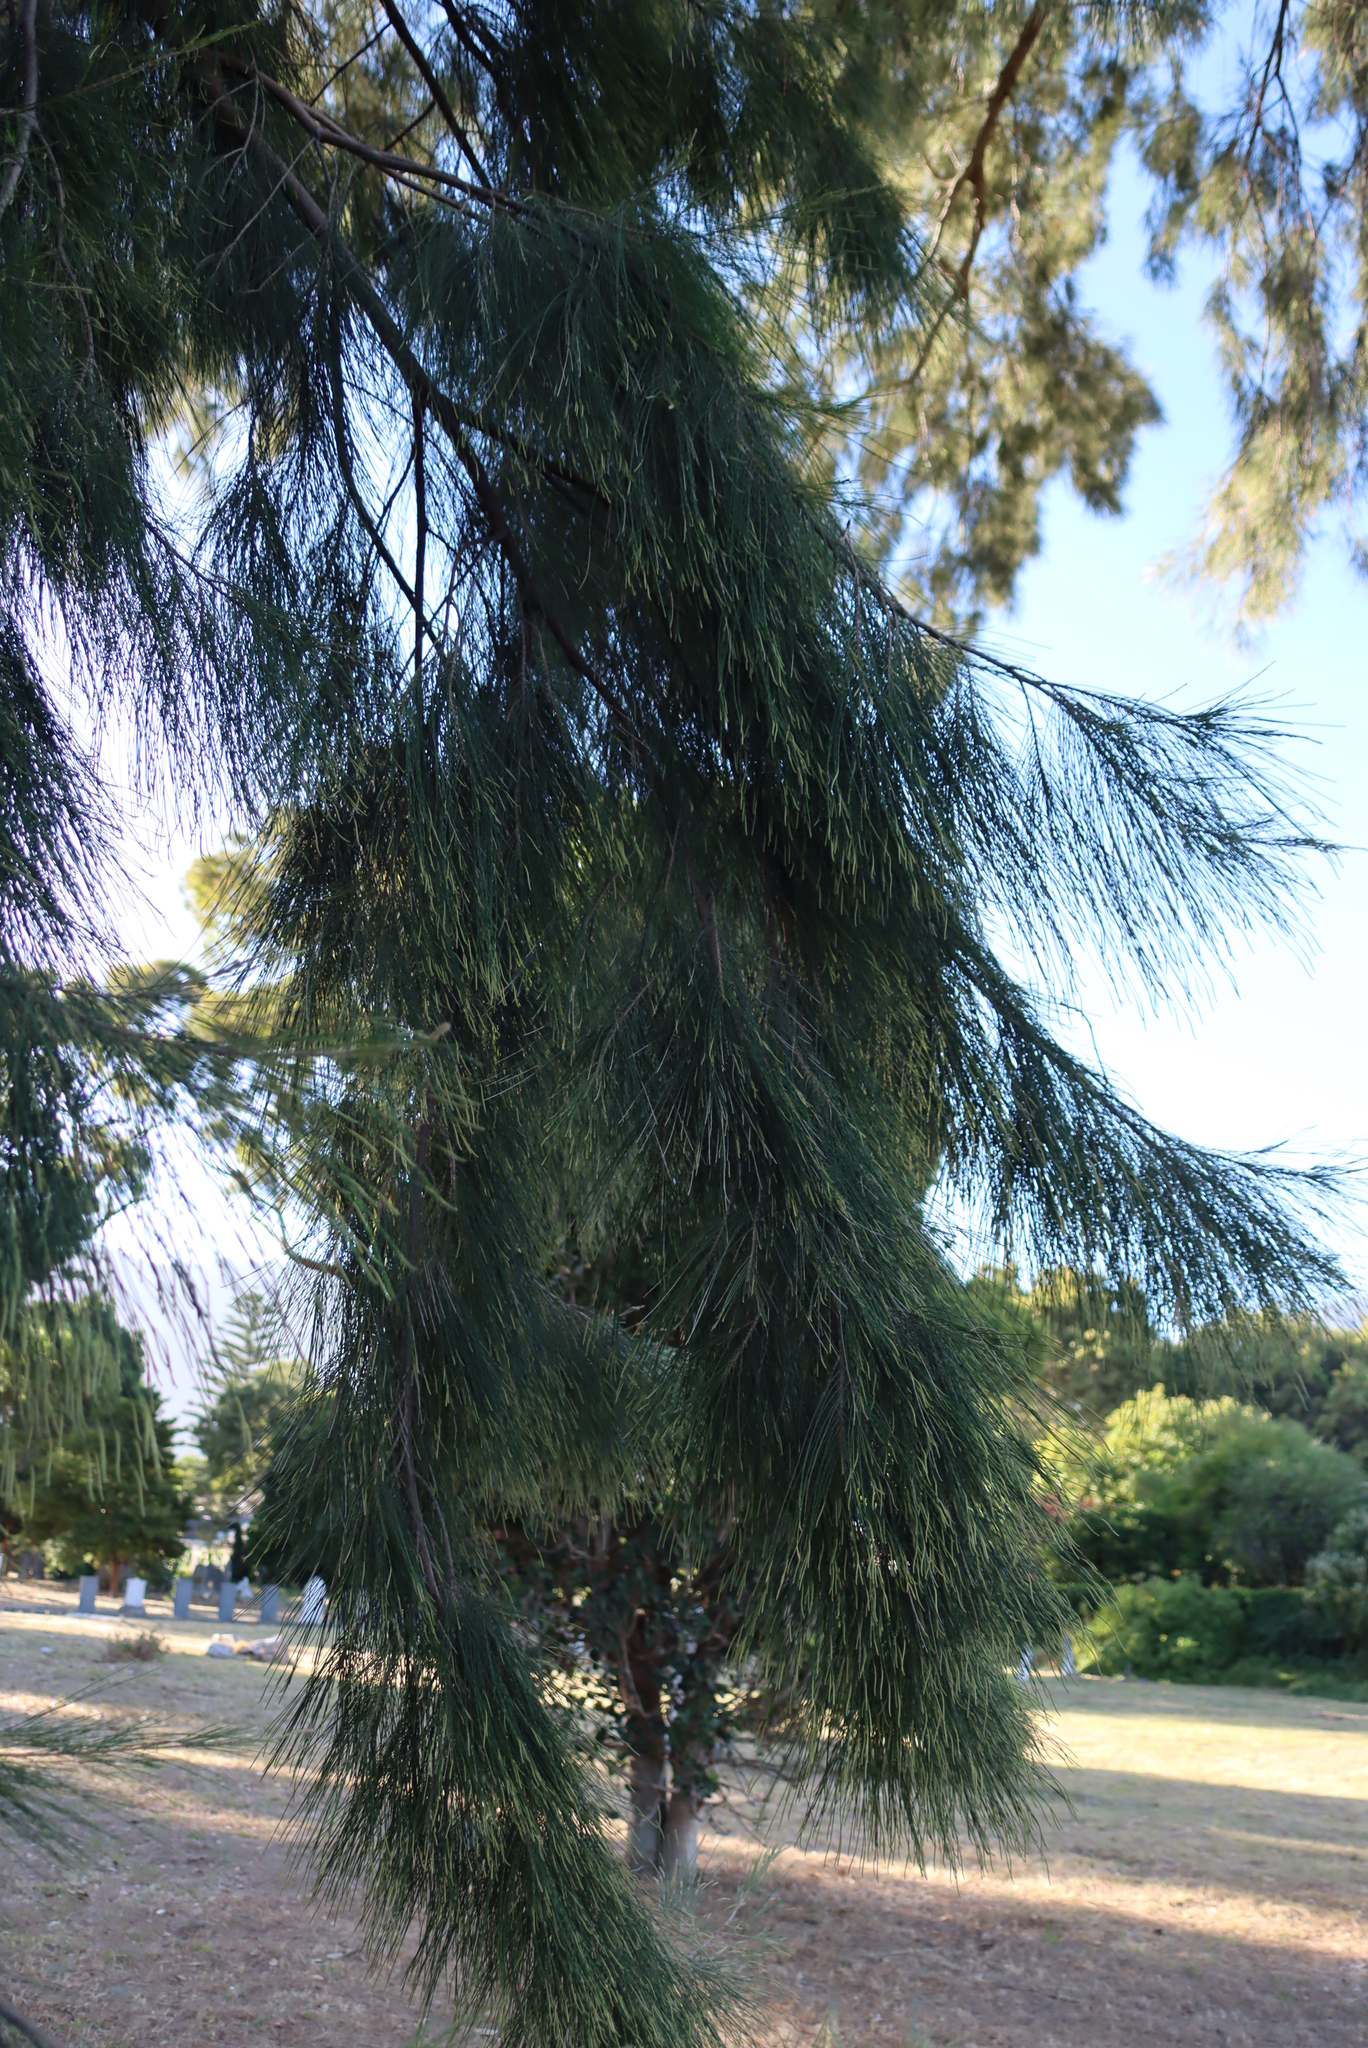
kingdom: Plantae
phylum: Tracheophyta
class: Magnoliopsida
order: Fagales
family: Casuarinaceae
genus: Casuarina
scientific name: Casuarina cunninghamiana
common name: River sheoak
